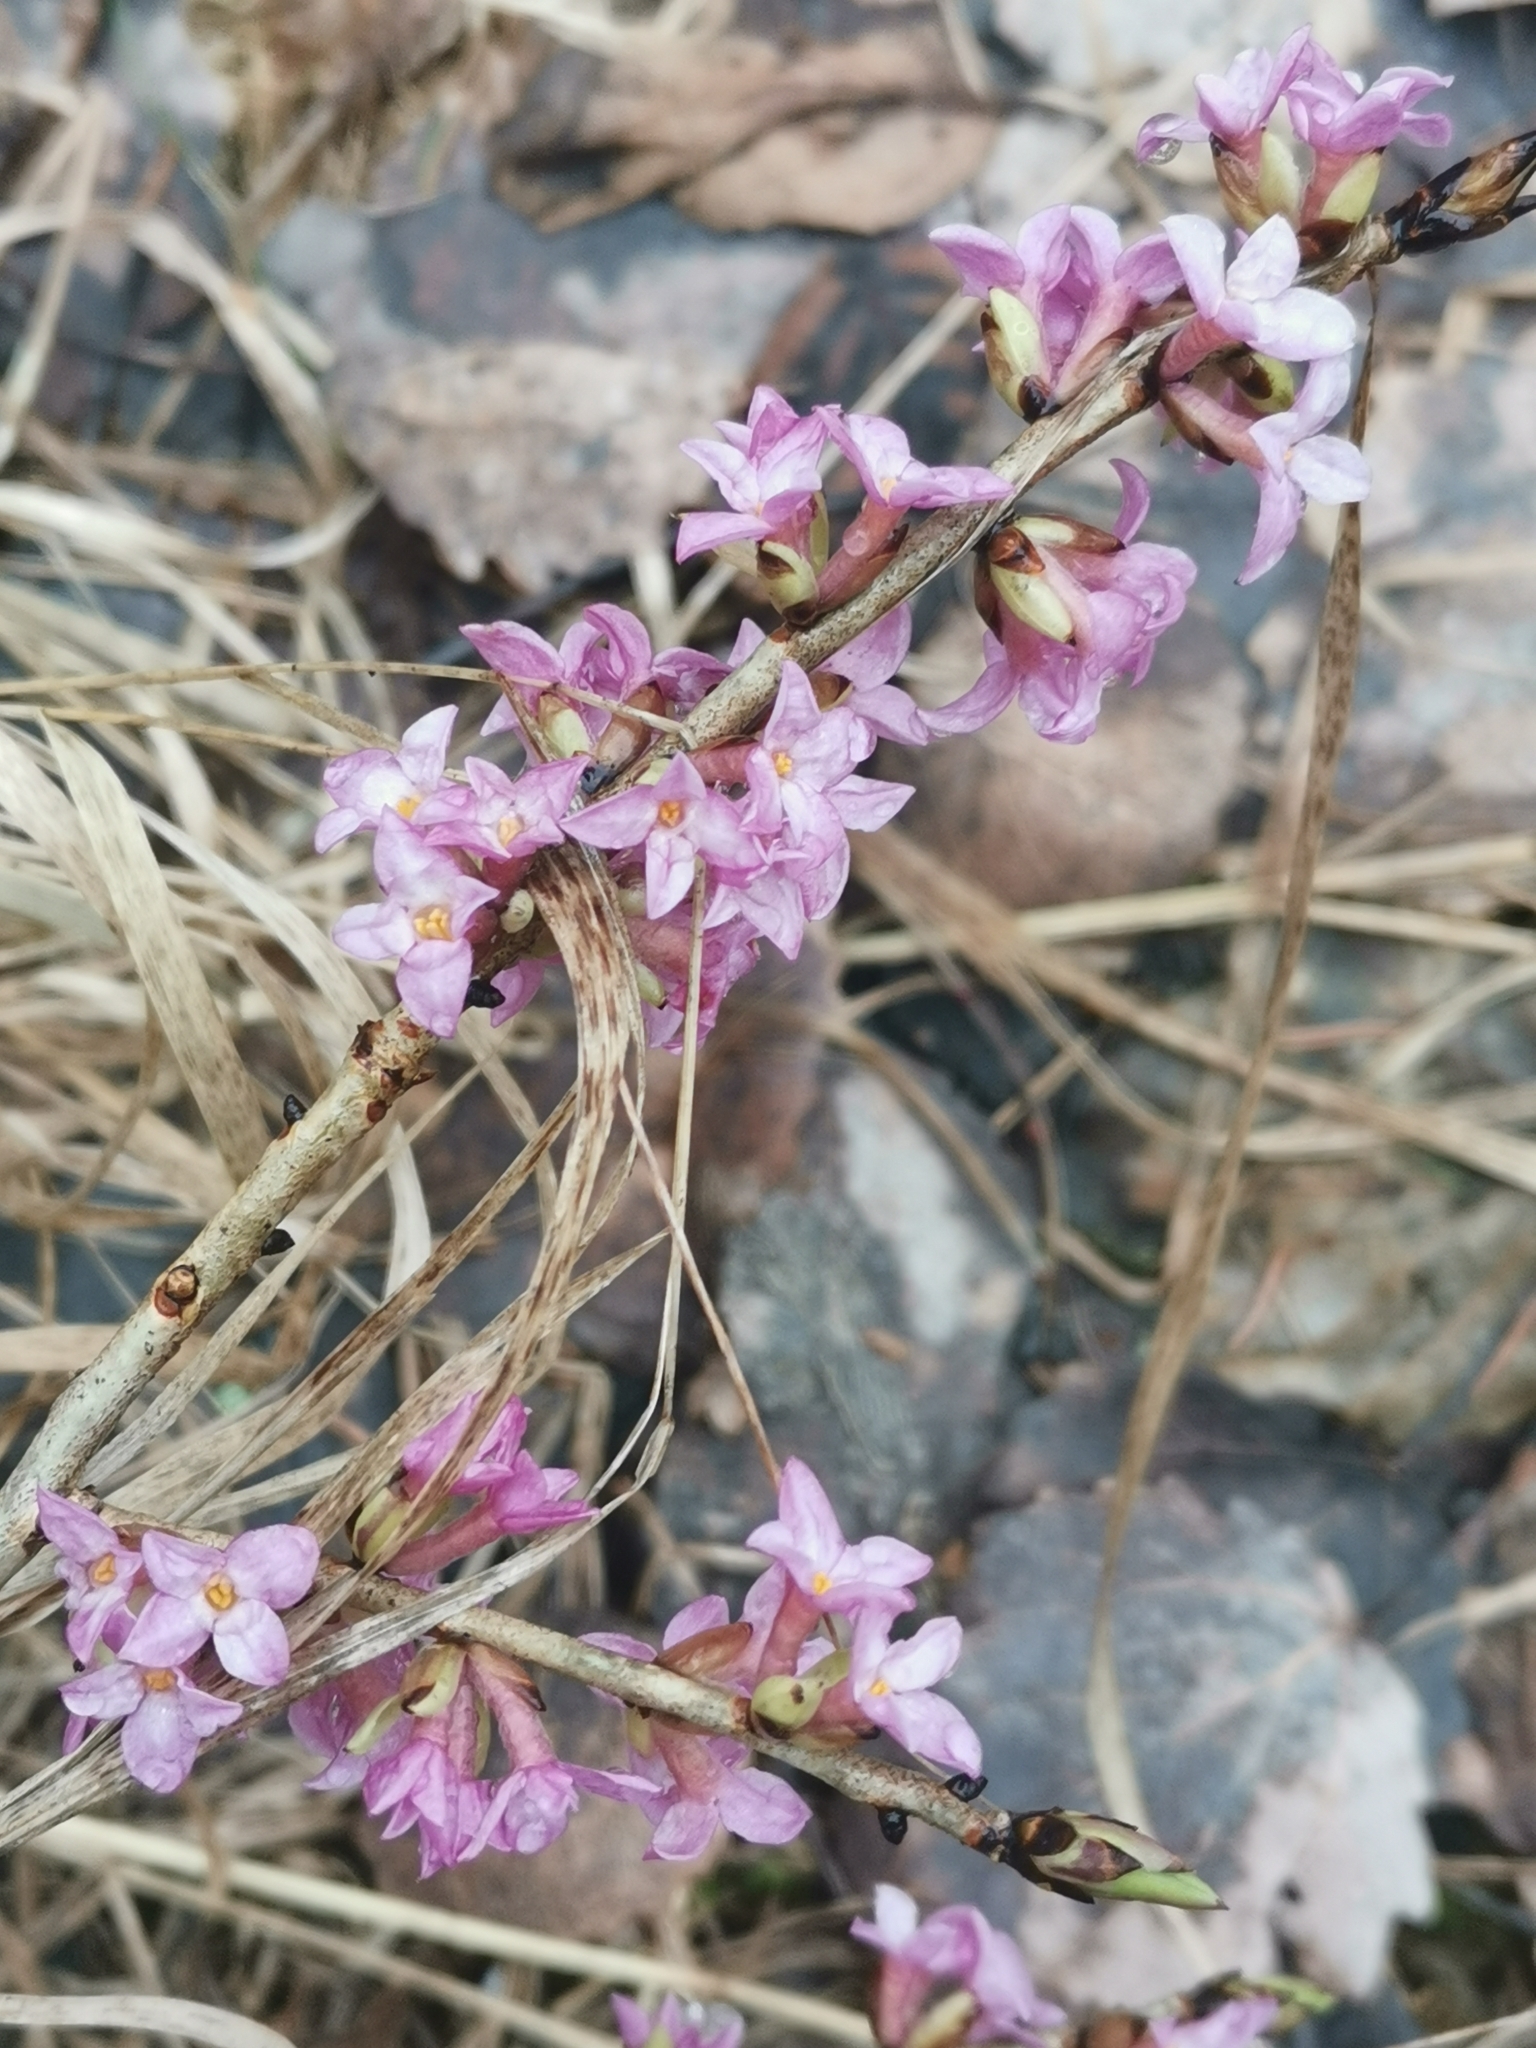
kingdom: Plantae
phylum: Tracheophyta
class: Magnoliopsida
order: Malvales
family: Thymelaeaceae
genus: Daphne
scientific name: Daphne mezereum
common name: Mezereon
